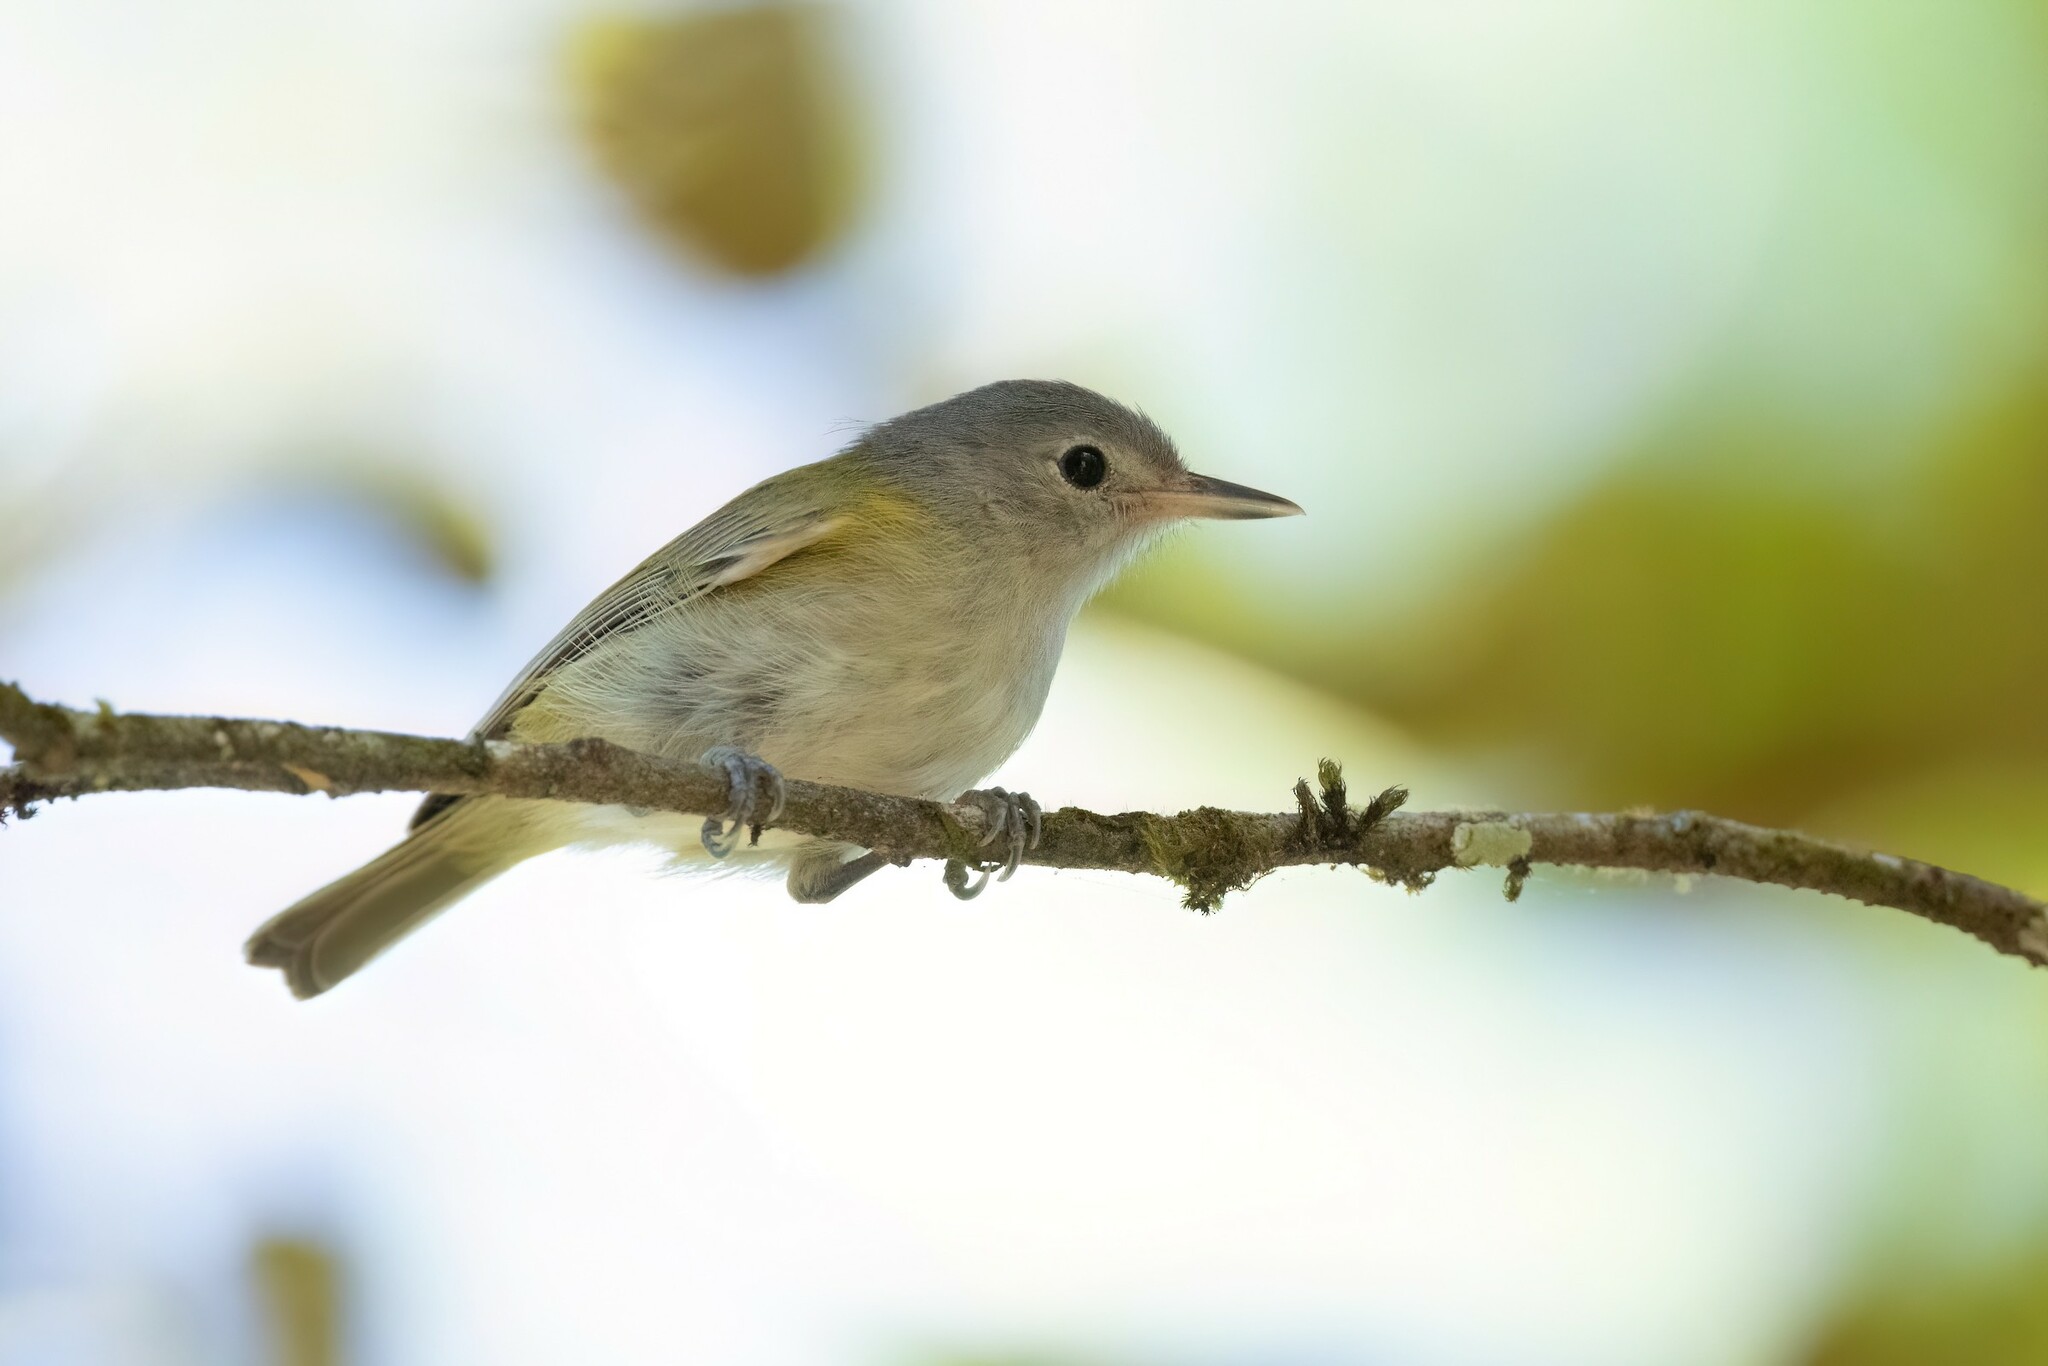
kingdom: Animalia
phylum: Chordata
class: Aves
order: Passeriformes
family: Vireonidae
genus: Hylophilus
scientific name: Hylophilus decurtatus
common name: Lesser greenlet
